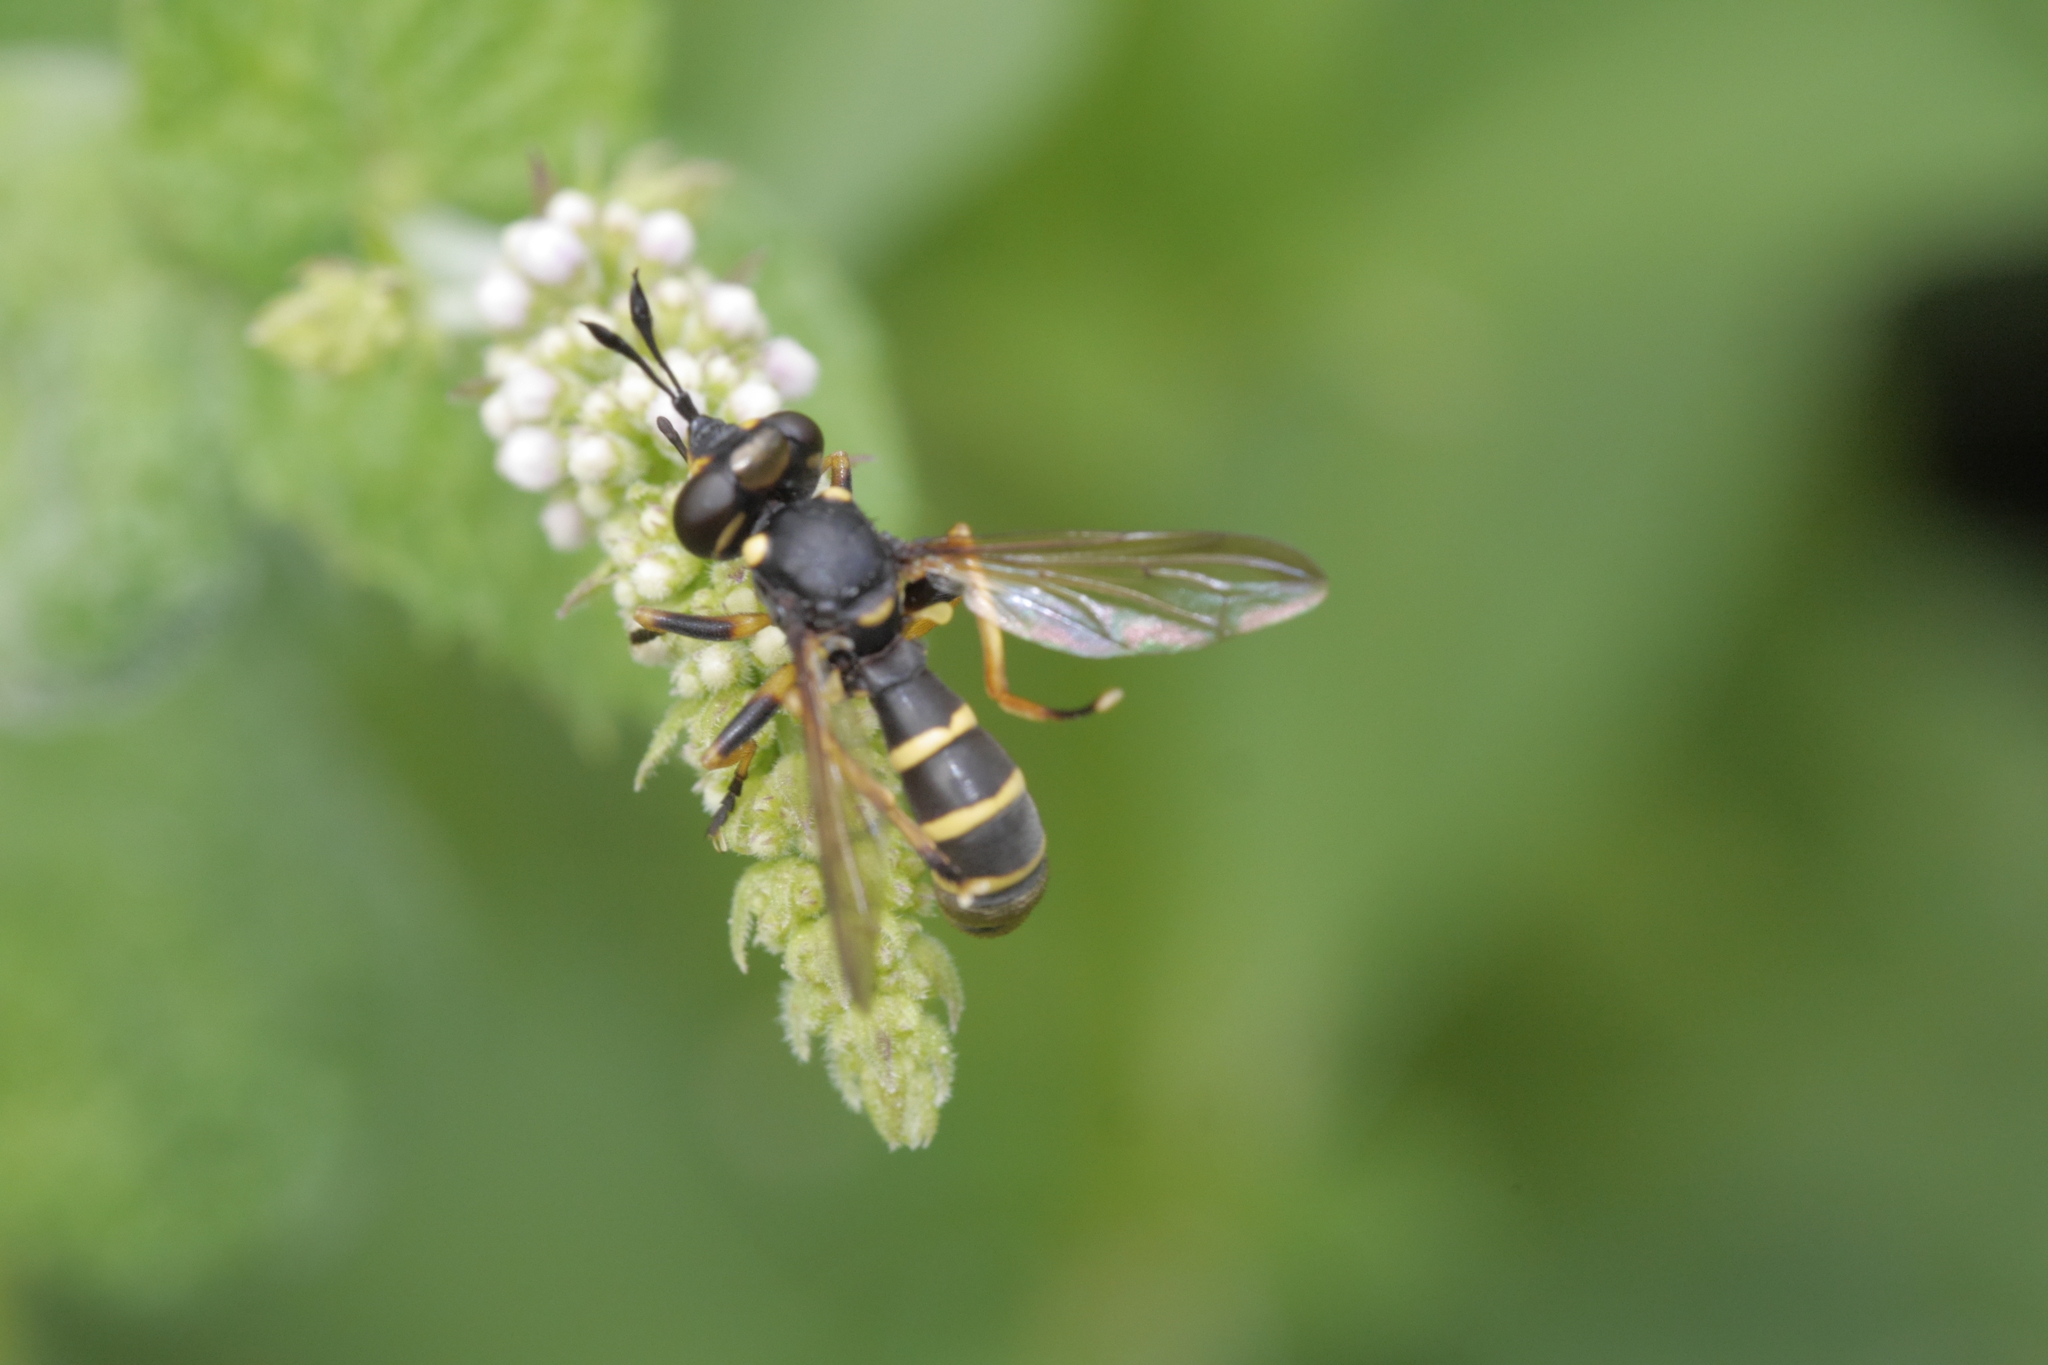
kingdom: Animalia
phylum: Arthropoda
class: Insecta
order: Diptera
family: Conopidae
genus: Conops
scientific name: Conops flavipes
